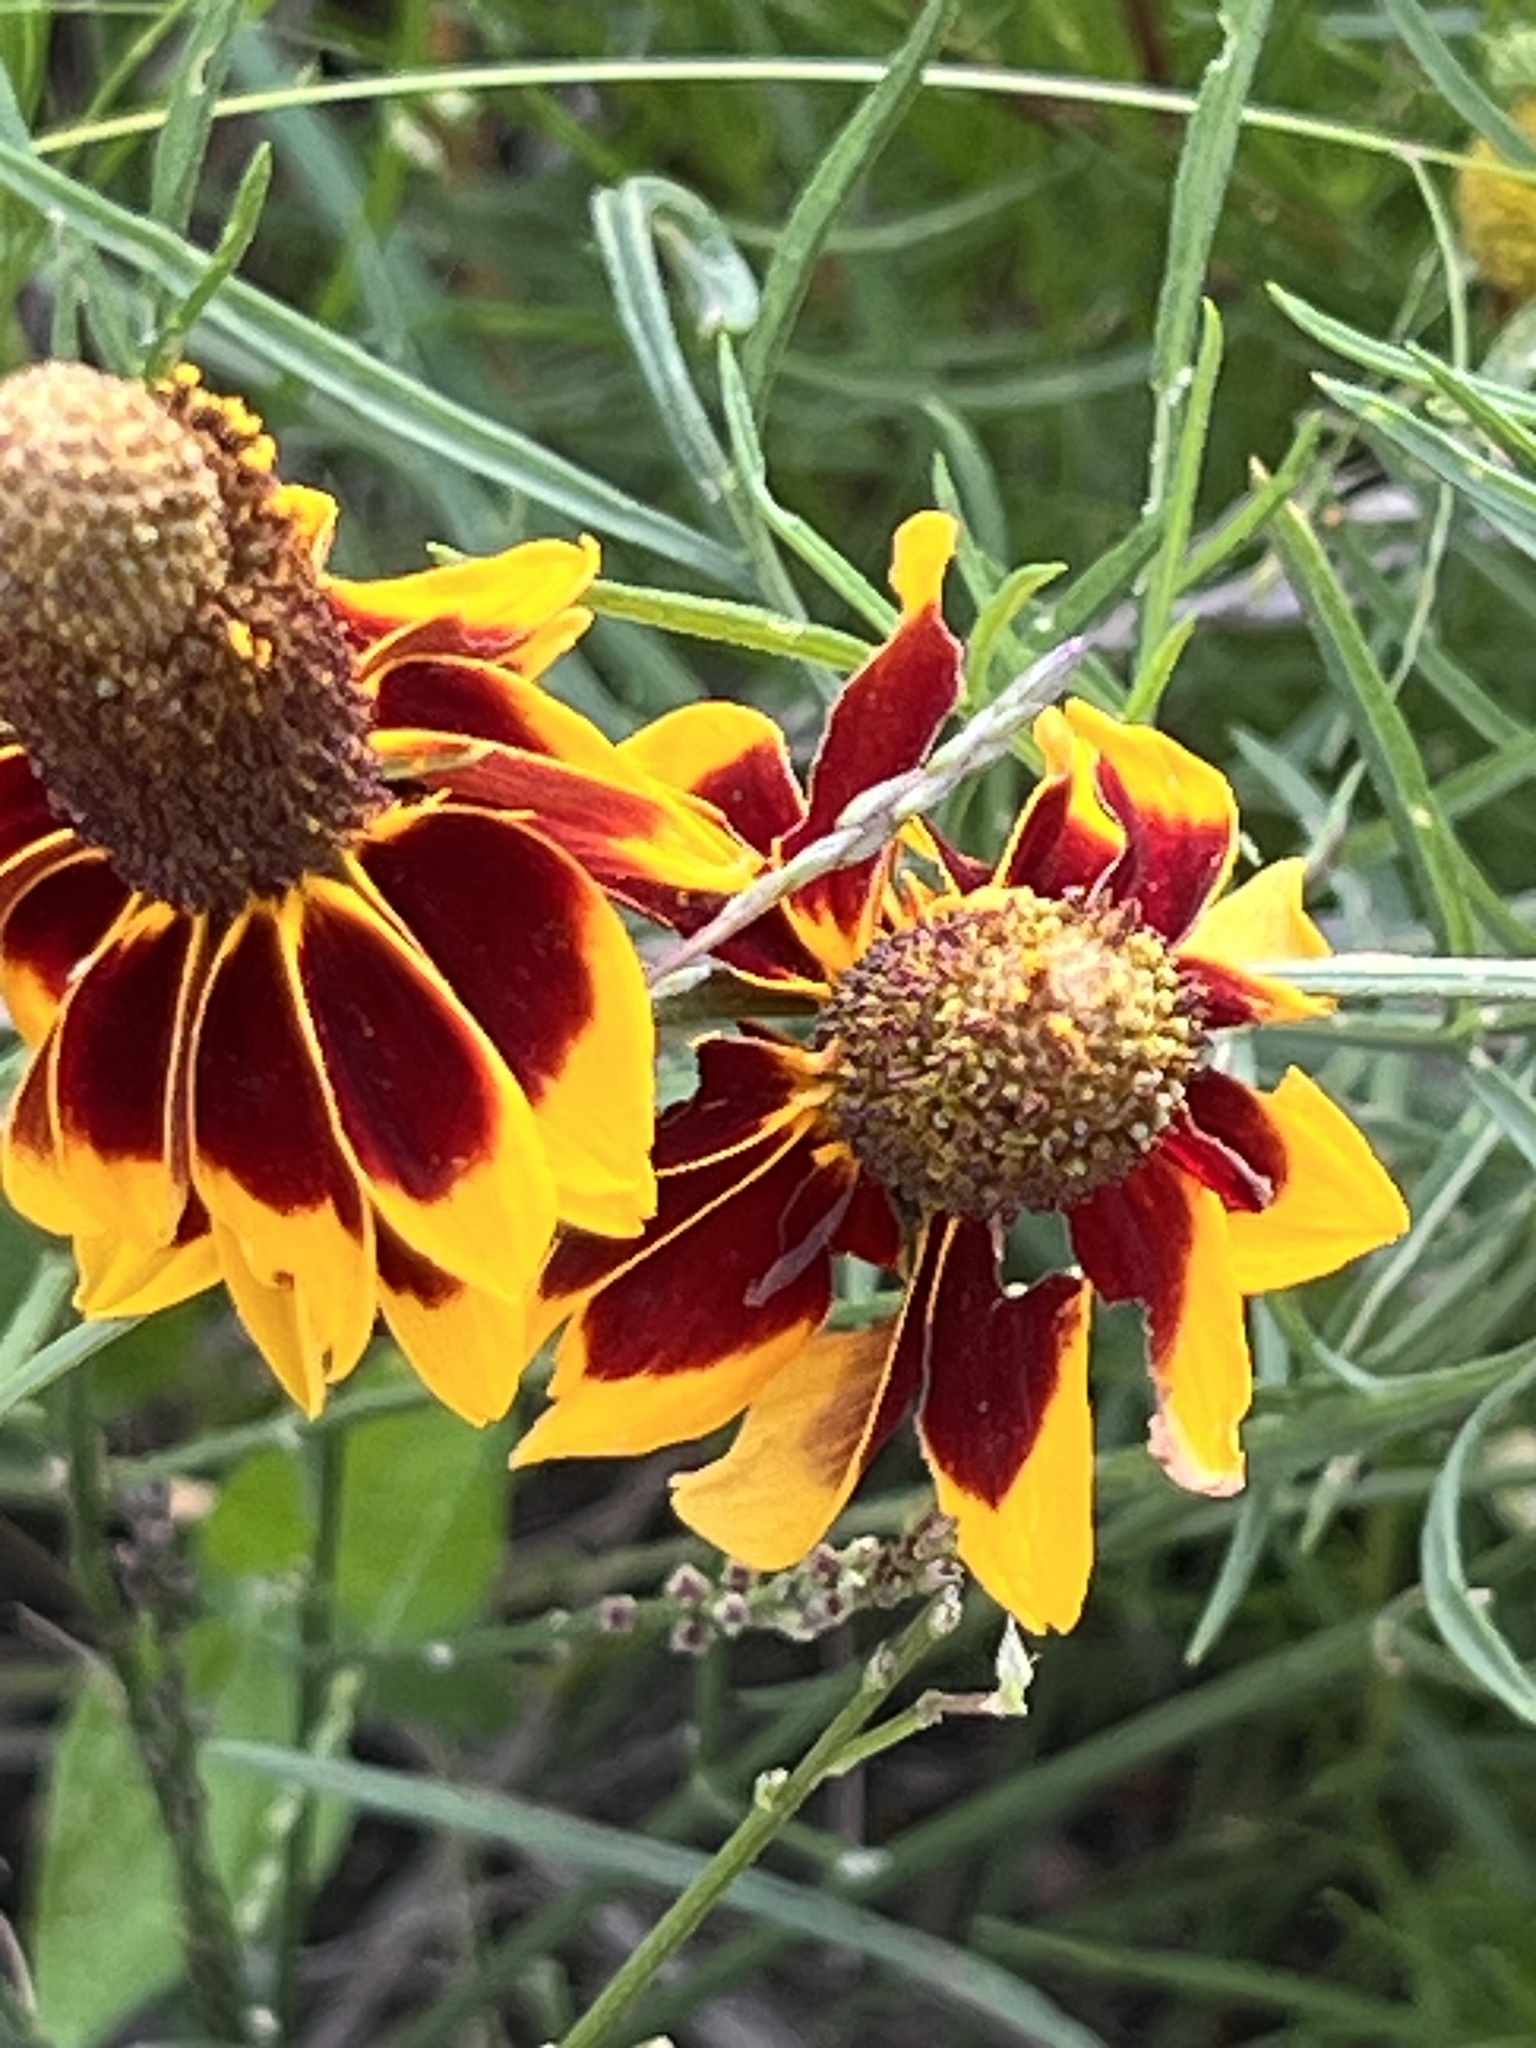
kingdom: Plantae
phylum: Tracheophyta
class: Magnoliopsida
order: Asterales
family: Asteraceae
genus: Ratibida
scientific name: Ratibida columnifera
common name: Prairie coneflower
